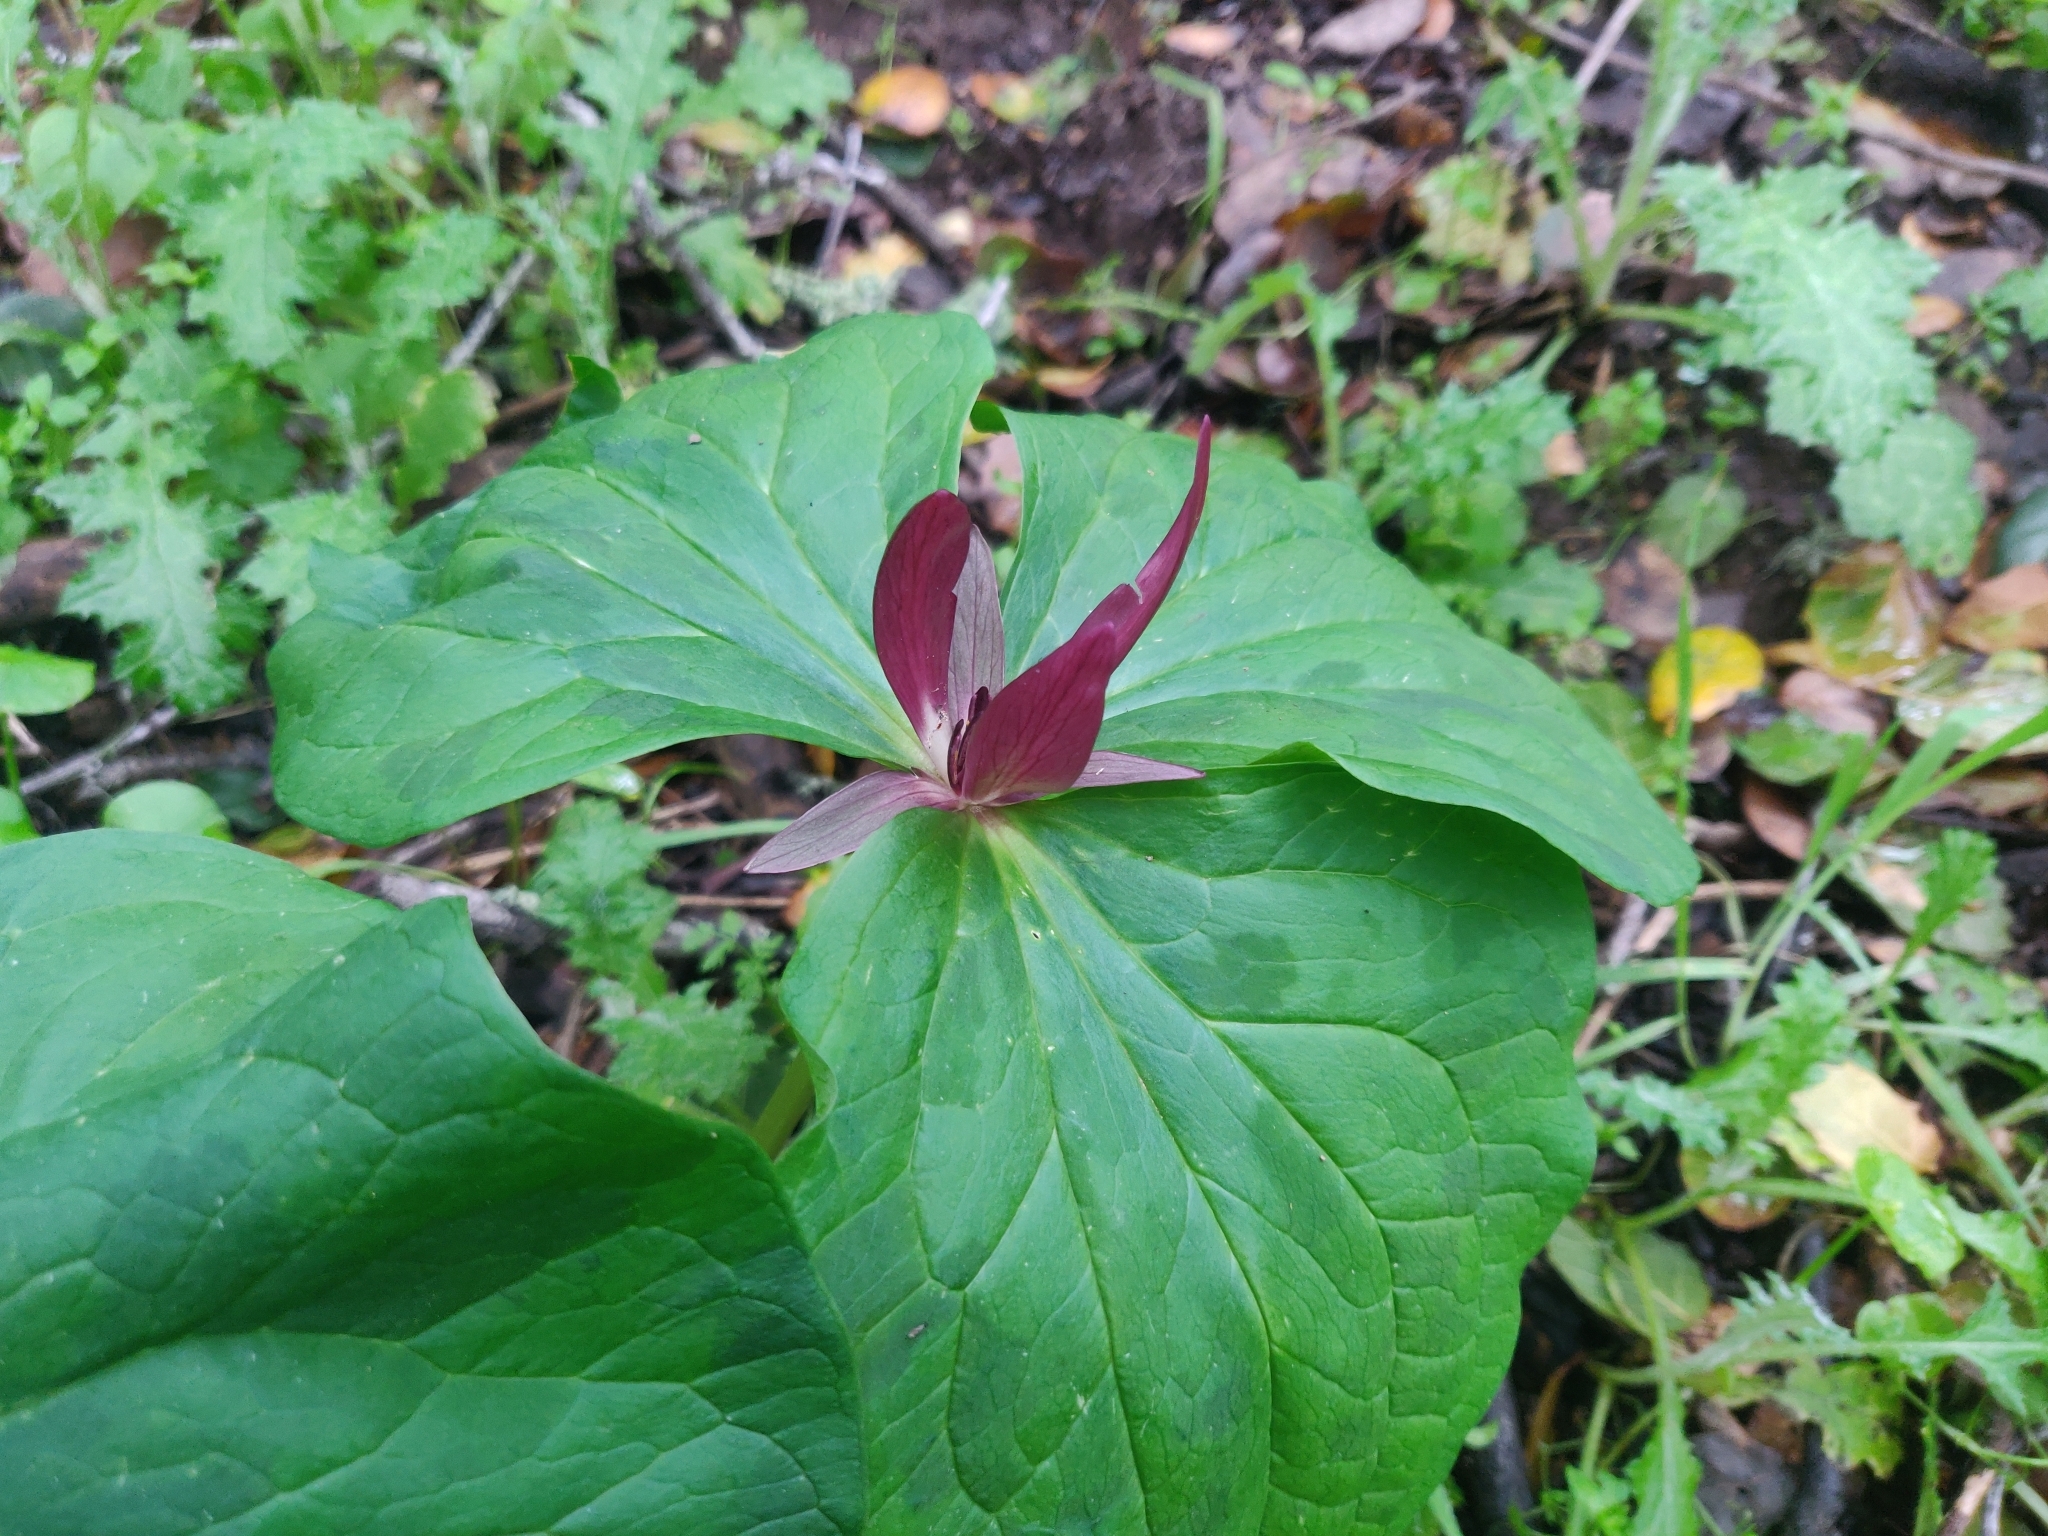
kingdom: Plantae
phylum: Tracheophyta
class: Liliopsida
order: Liliales
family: Melanthiaceae
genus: Trillium
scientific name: Trillium chloropetalum
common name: Giant trillium
